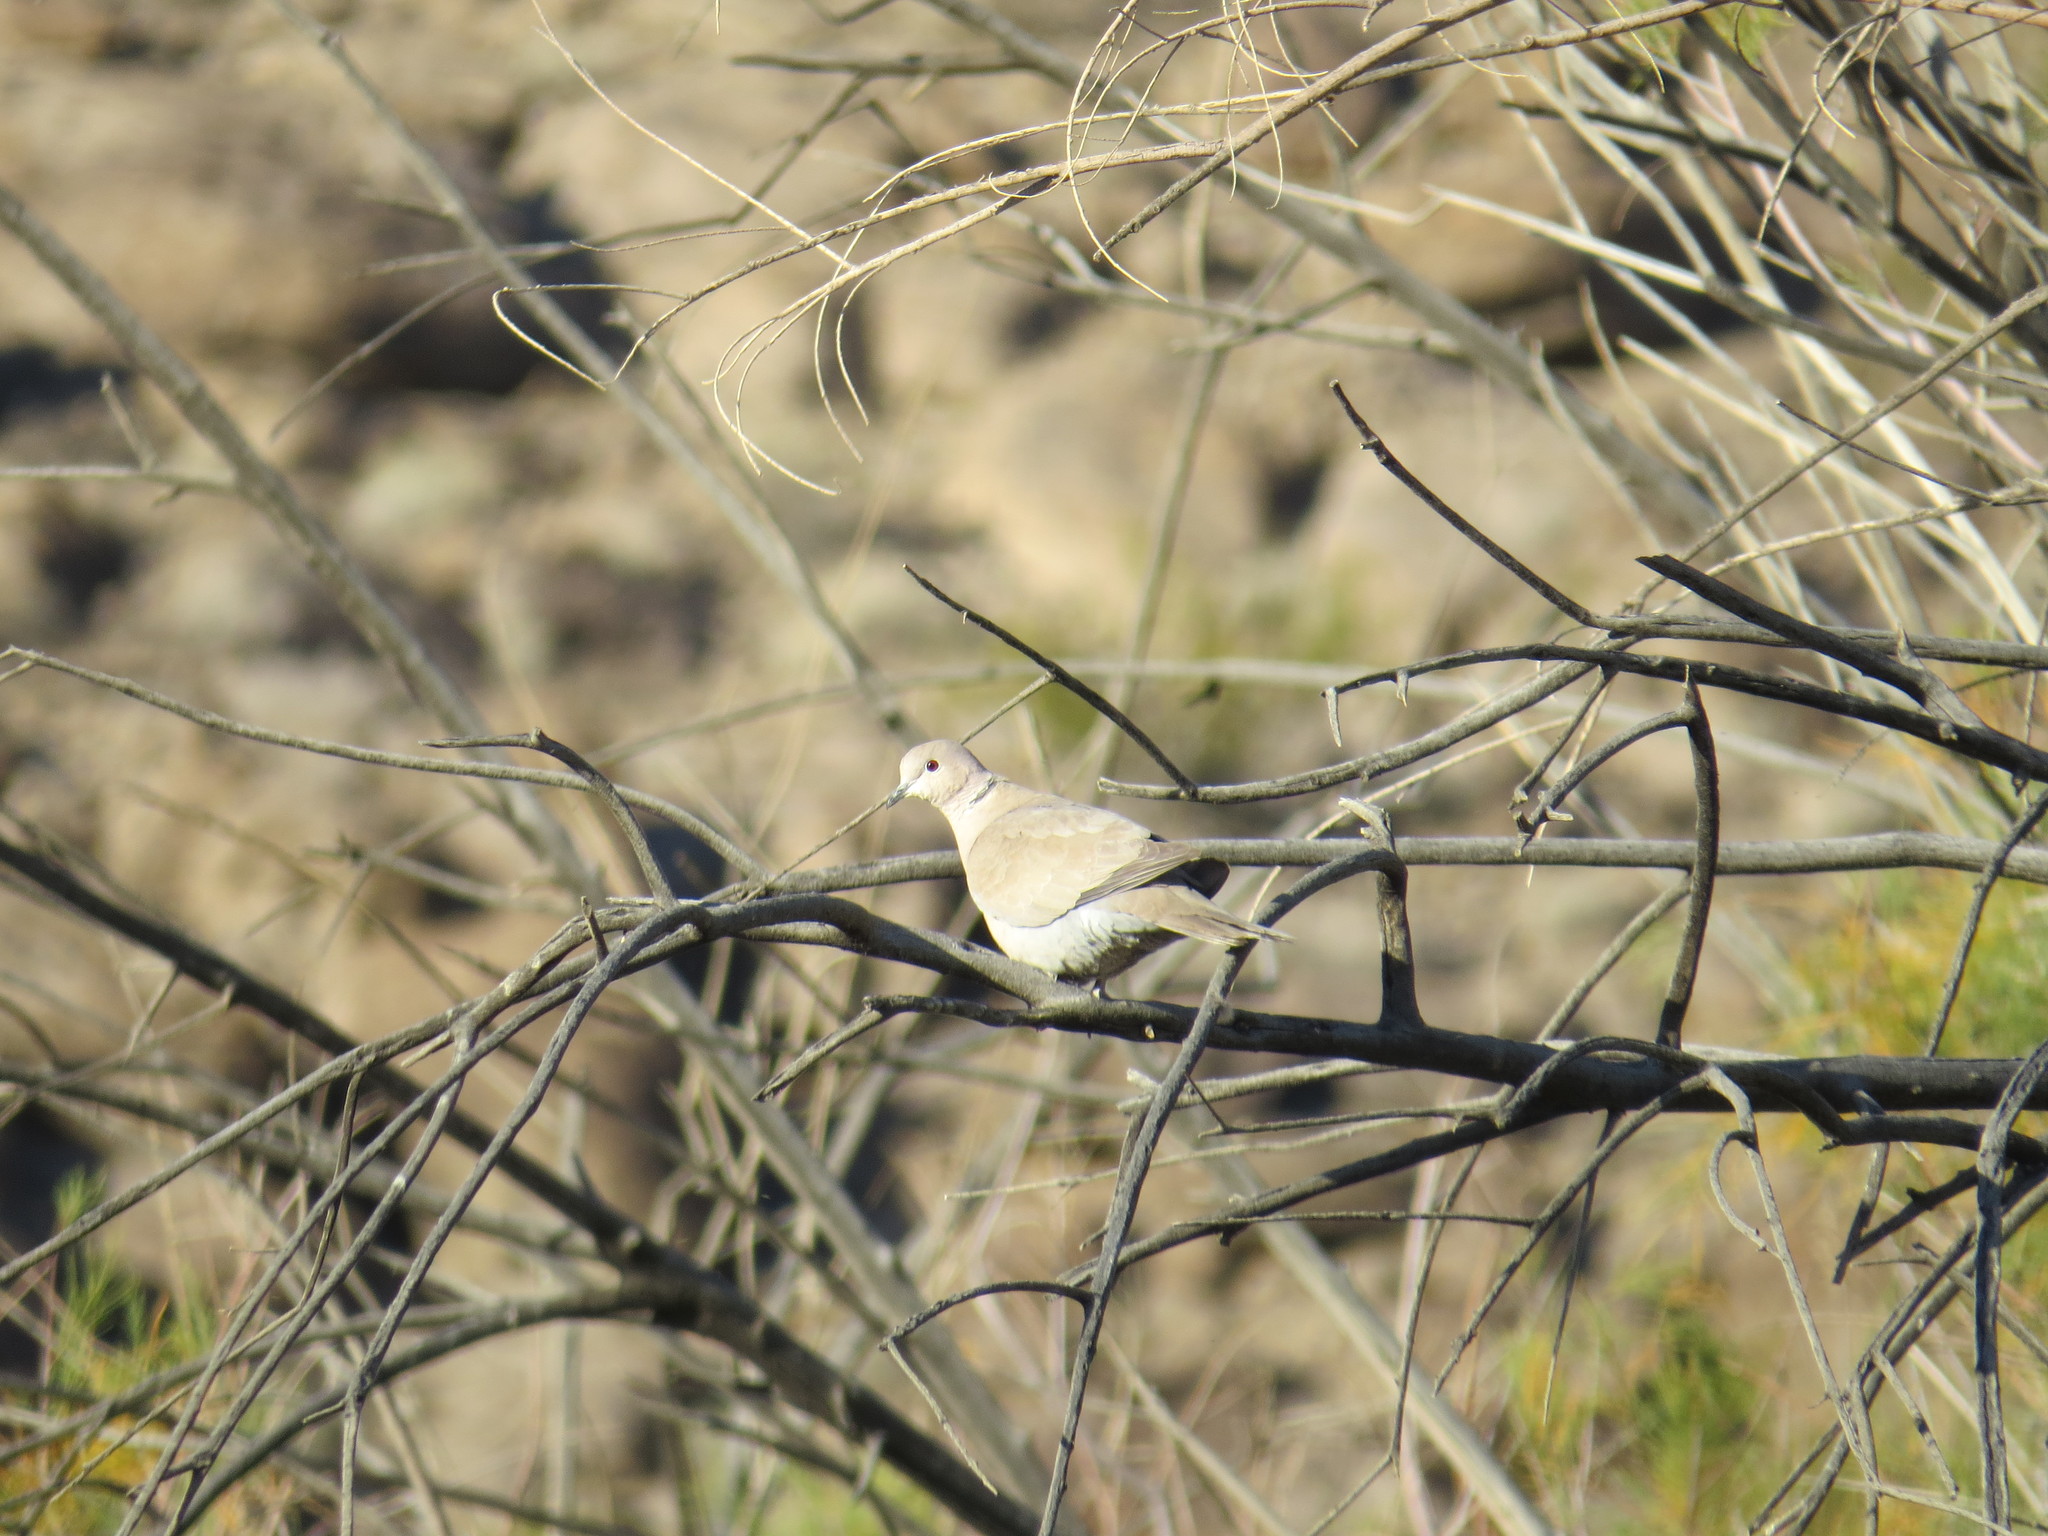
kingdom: Animalia
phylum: Chordata
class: Aves
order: Columbiformes
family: Columbidae
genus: Streptopelia
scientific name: Streptopelia decaocto
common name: Eurasian collared dove
